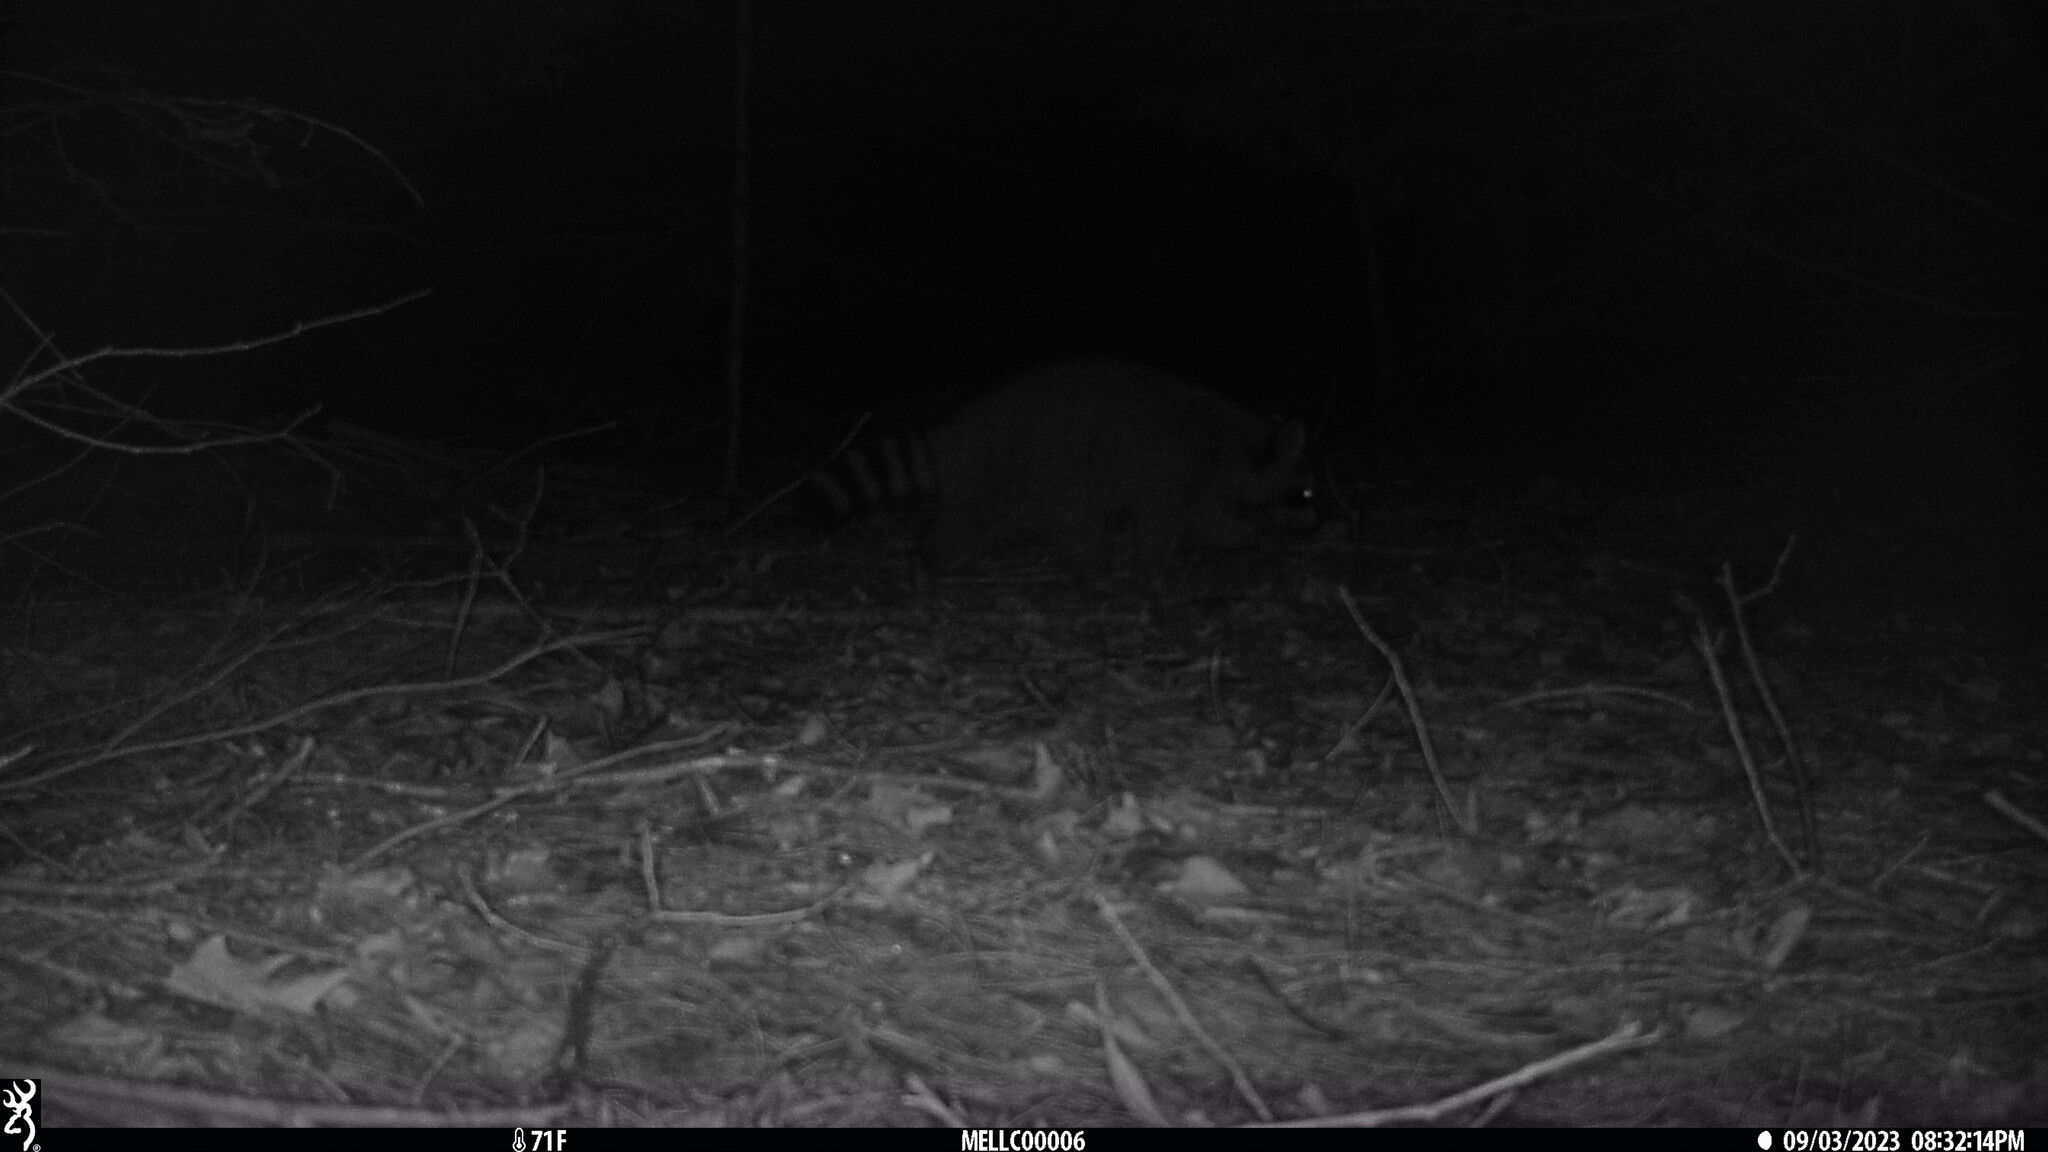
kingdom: Animalia
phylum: Chordata
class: Mammalia
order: Carnivora
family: Procyonidae
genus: Procyon
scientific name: Procyon lotor
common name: Raccoon
